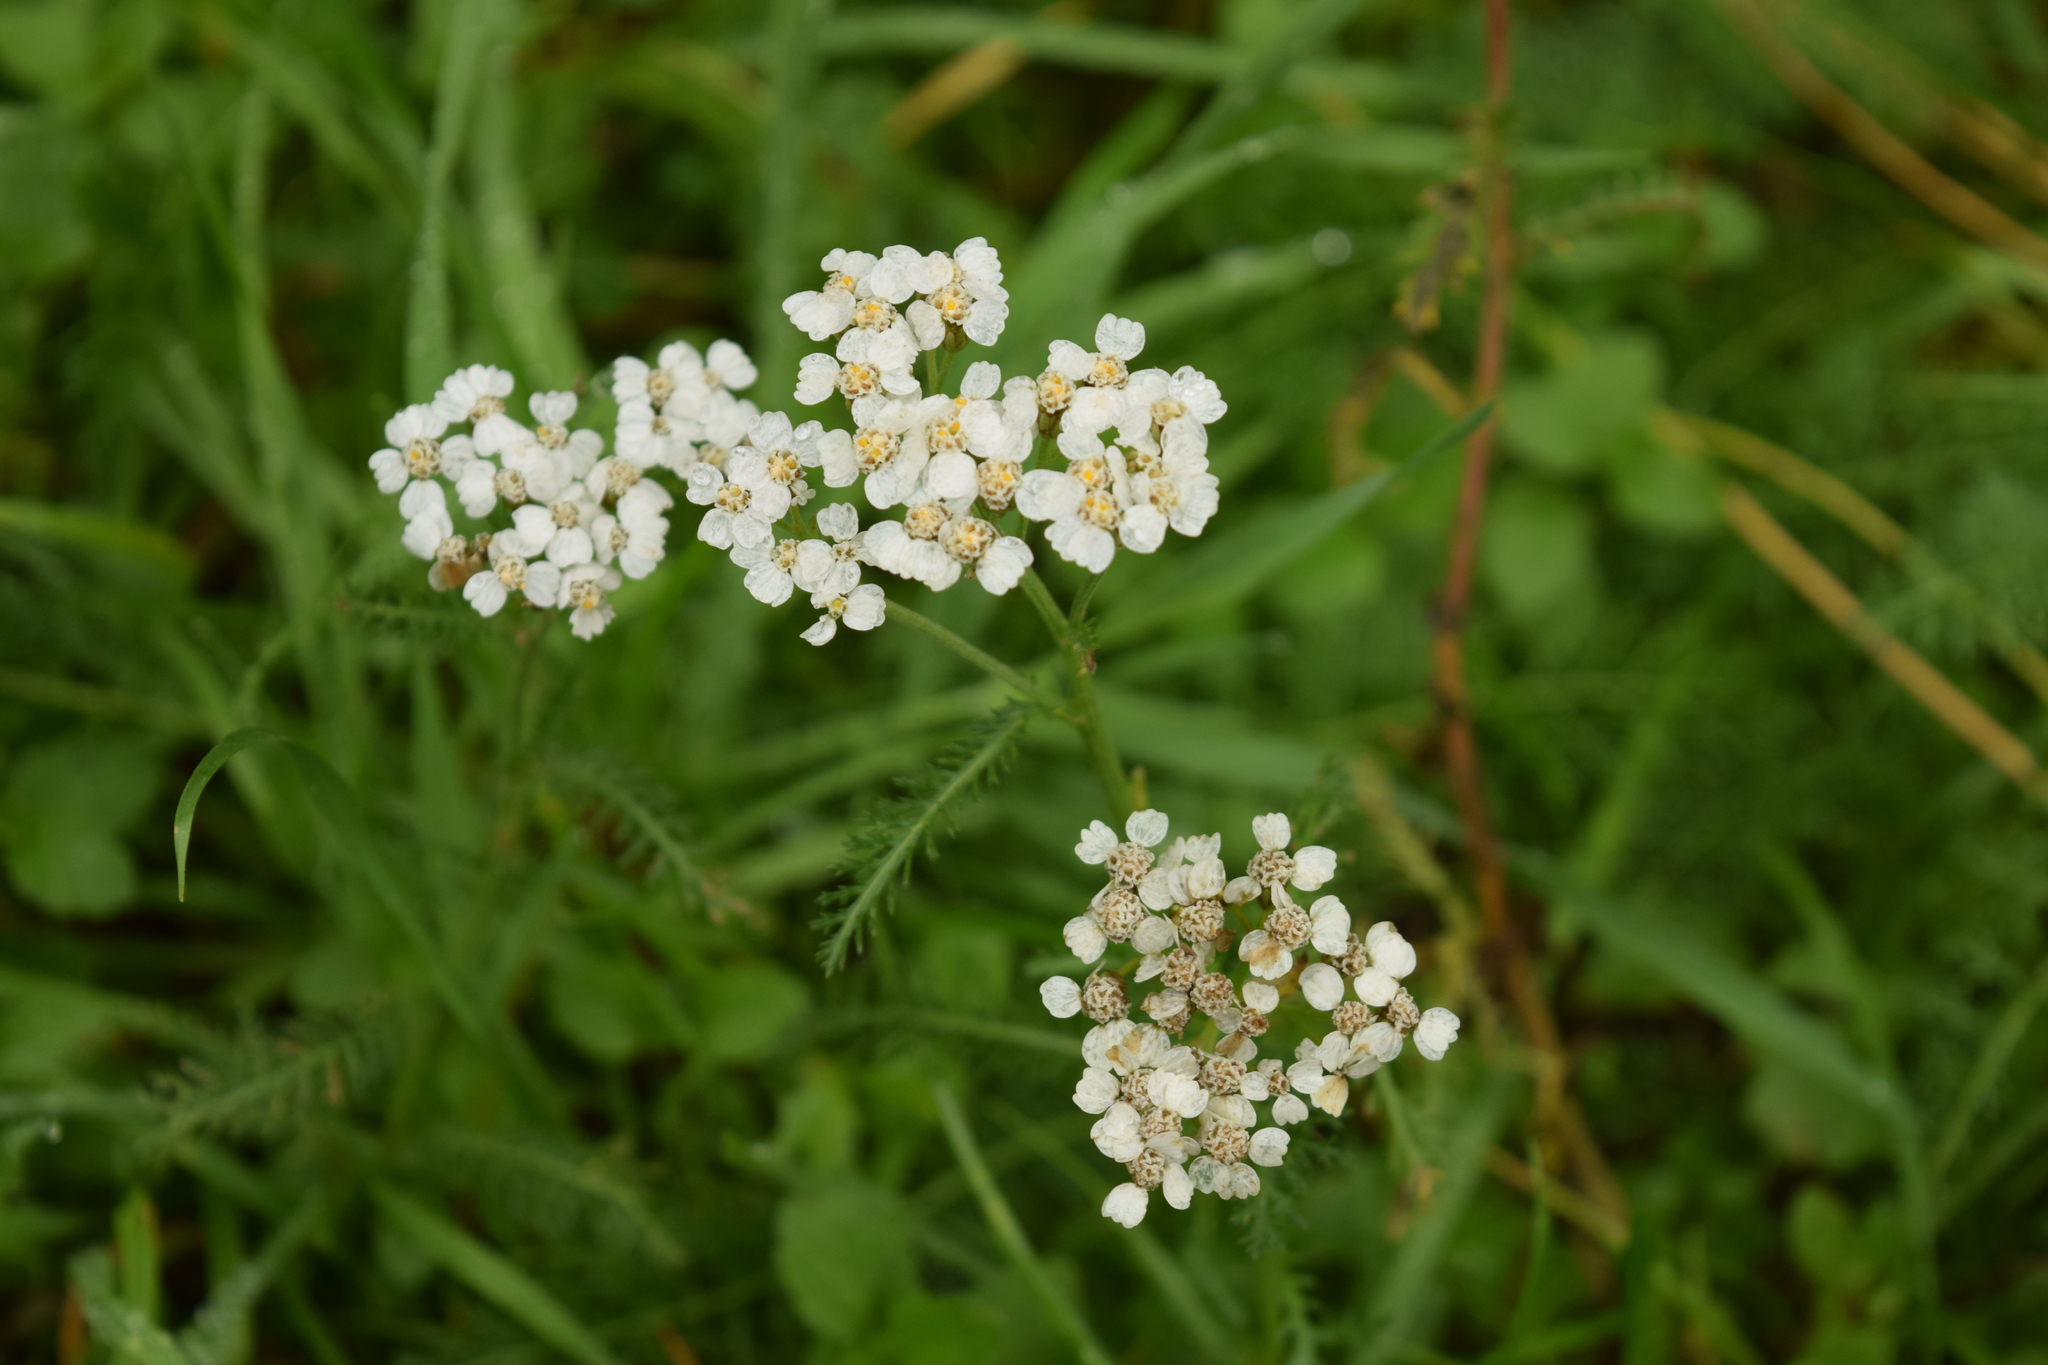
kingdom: Plantae
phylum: Tracheophyta
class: Magnoliopsida
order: Asterales
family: Asteraceae
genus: Achillea
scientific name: Achillea millefolium
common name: Yarrow
